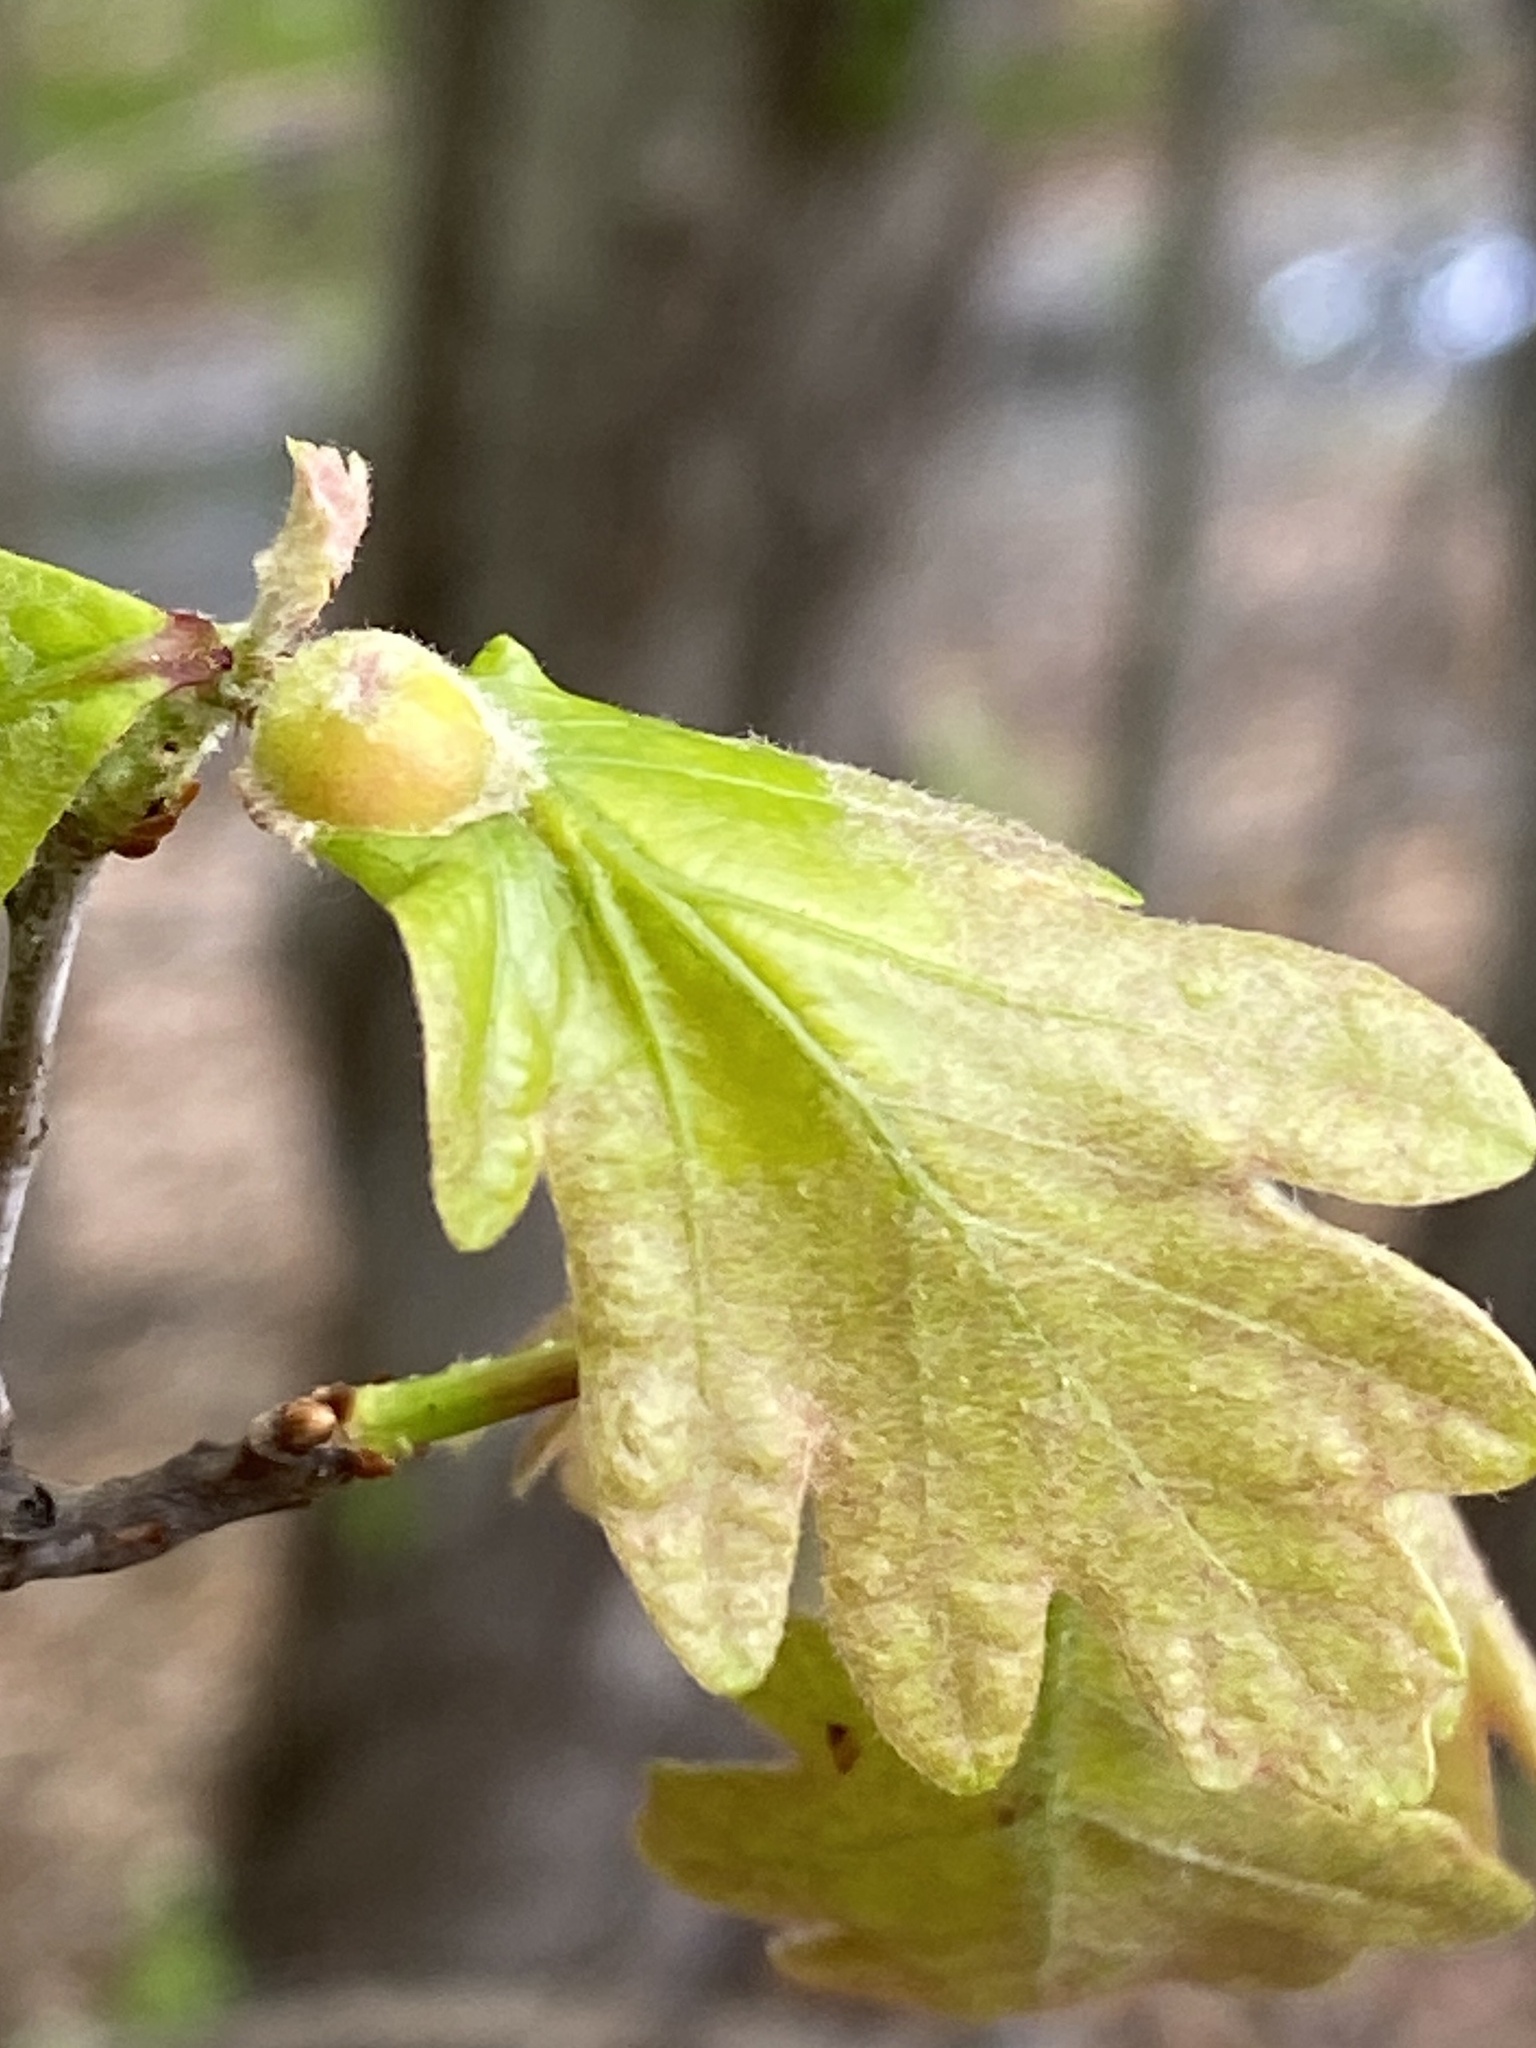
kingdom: Animalia
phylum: Arthropoda
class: Insecta
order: Hymenoptera
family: Cynipidae
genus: Andricus
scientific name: Andricus
